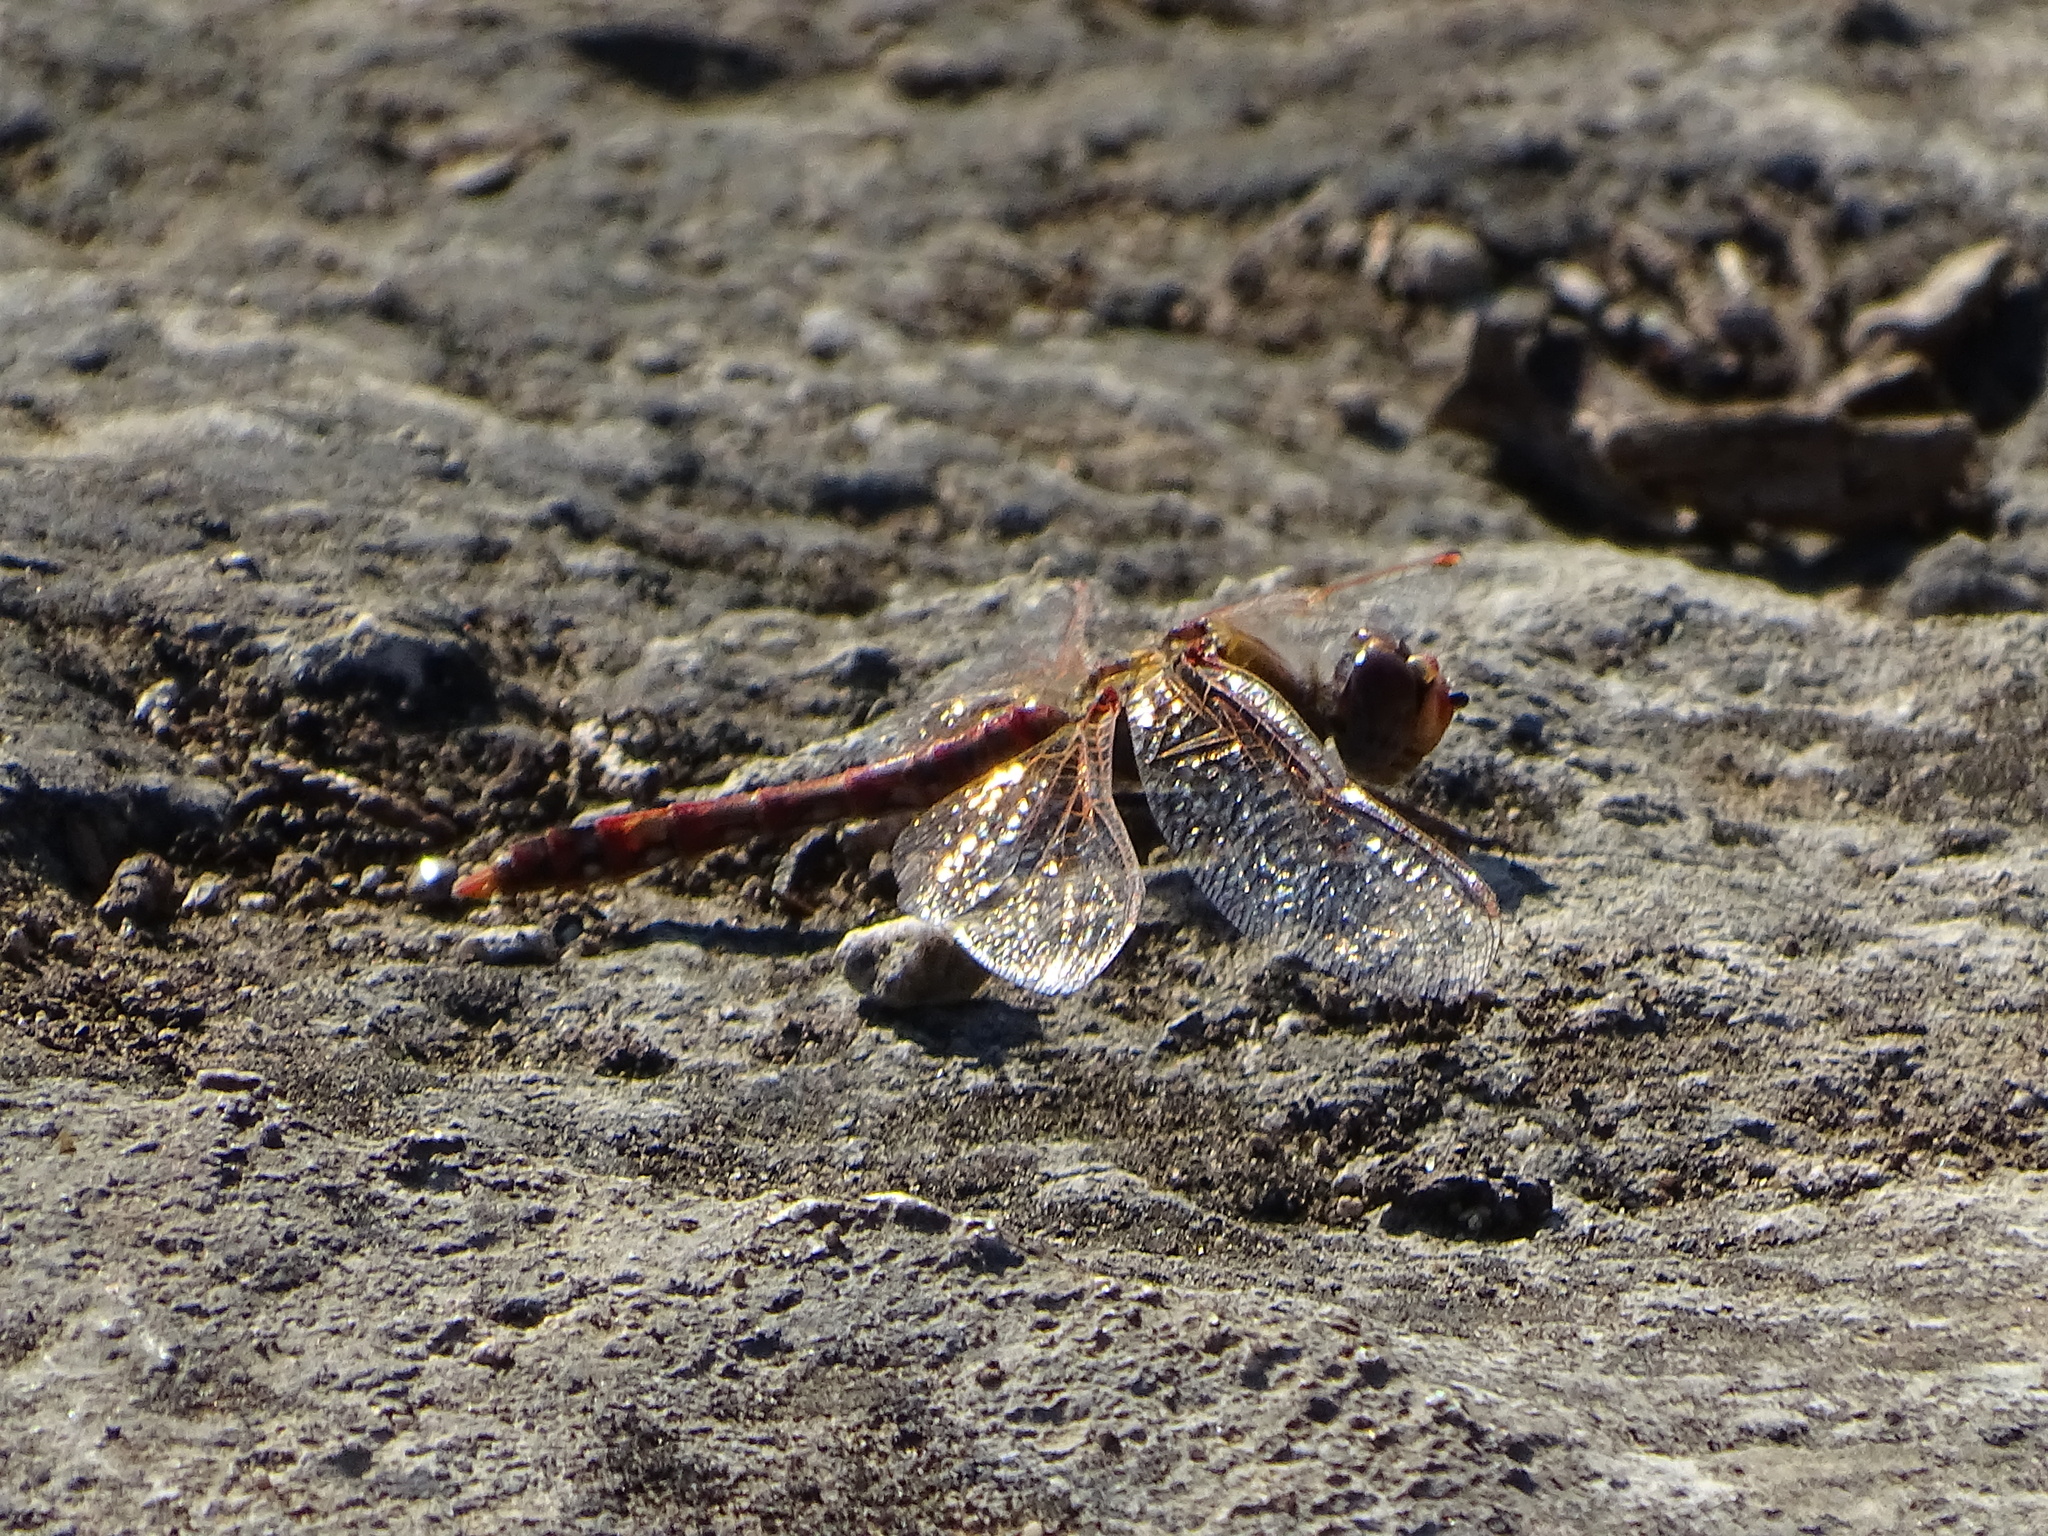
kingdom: Animalia
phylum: Arthropoda
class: Insecta
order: Odonata
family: Libellulidae
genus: Sympetrum
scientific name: Sympetrum corruptum
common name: Variegated meadowhawk
